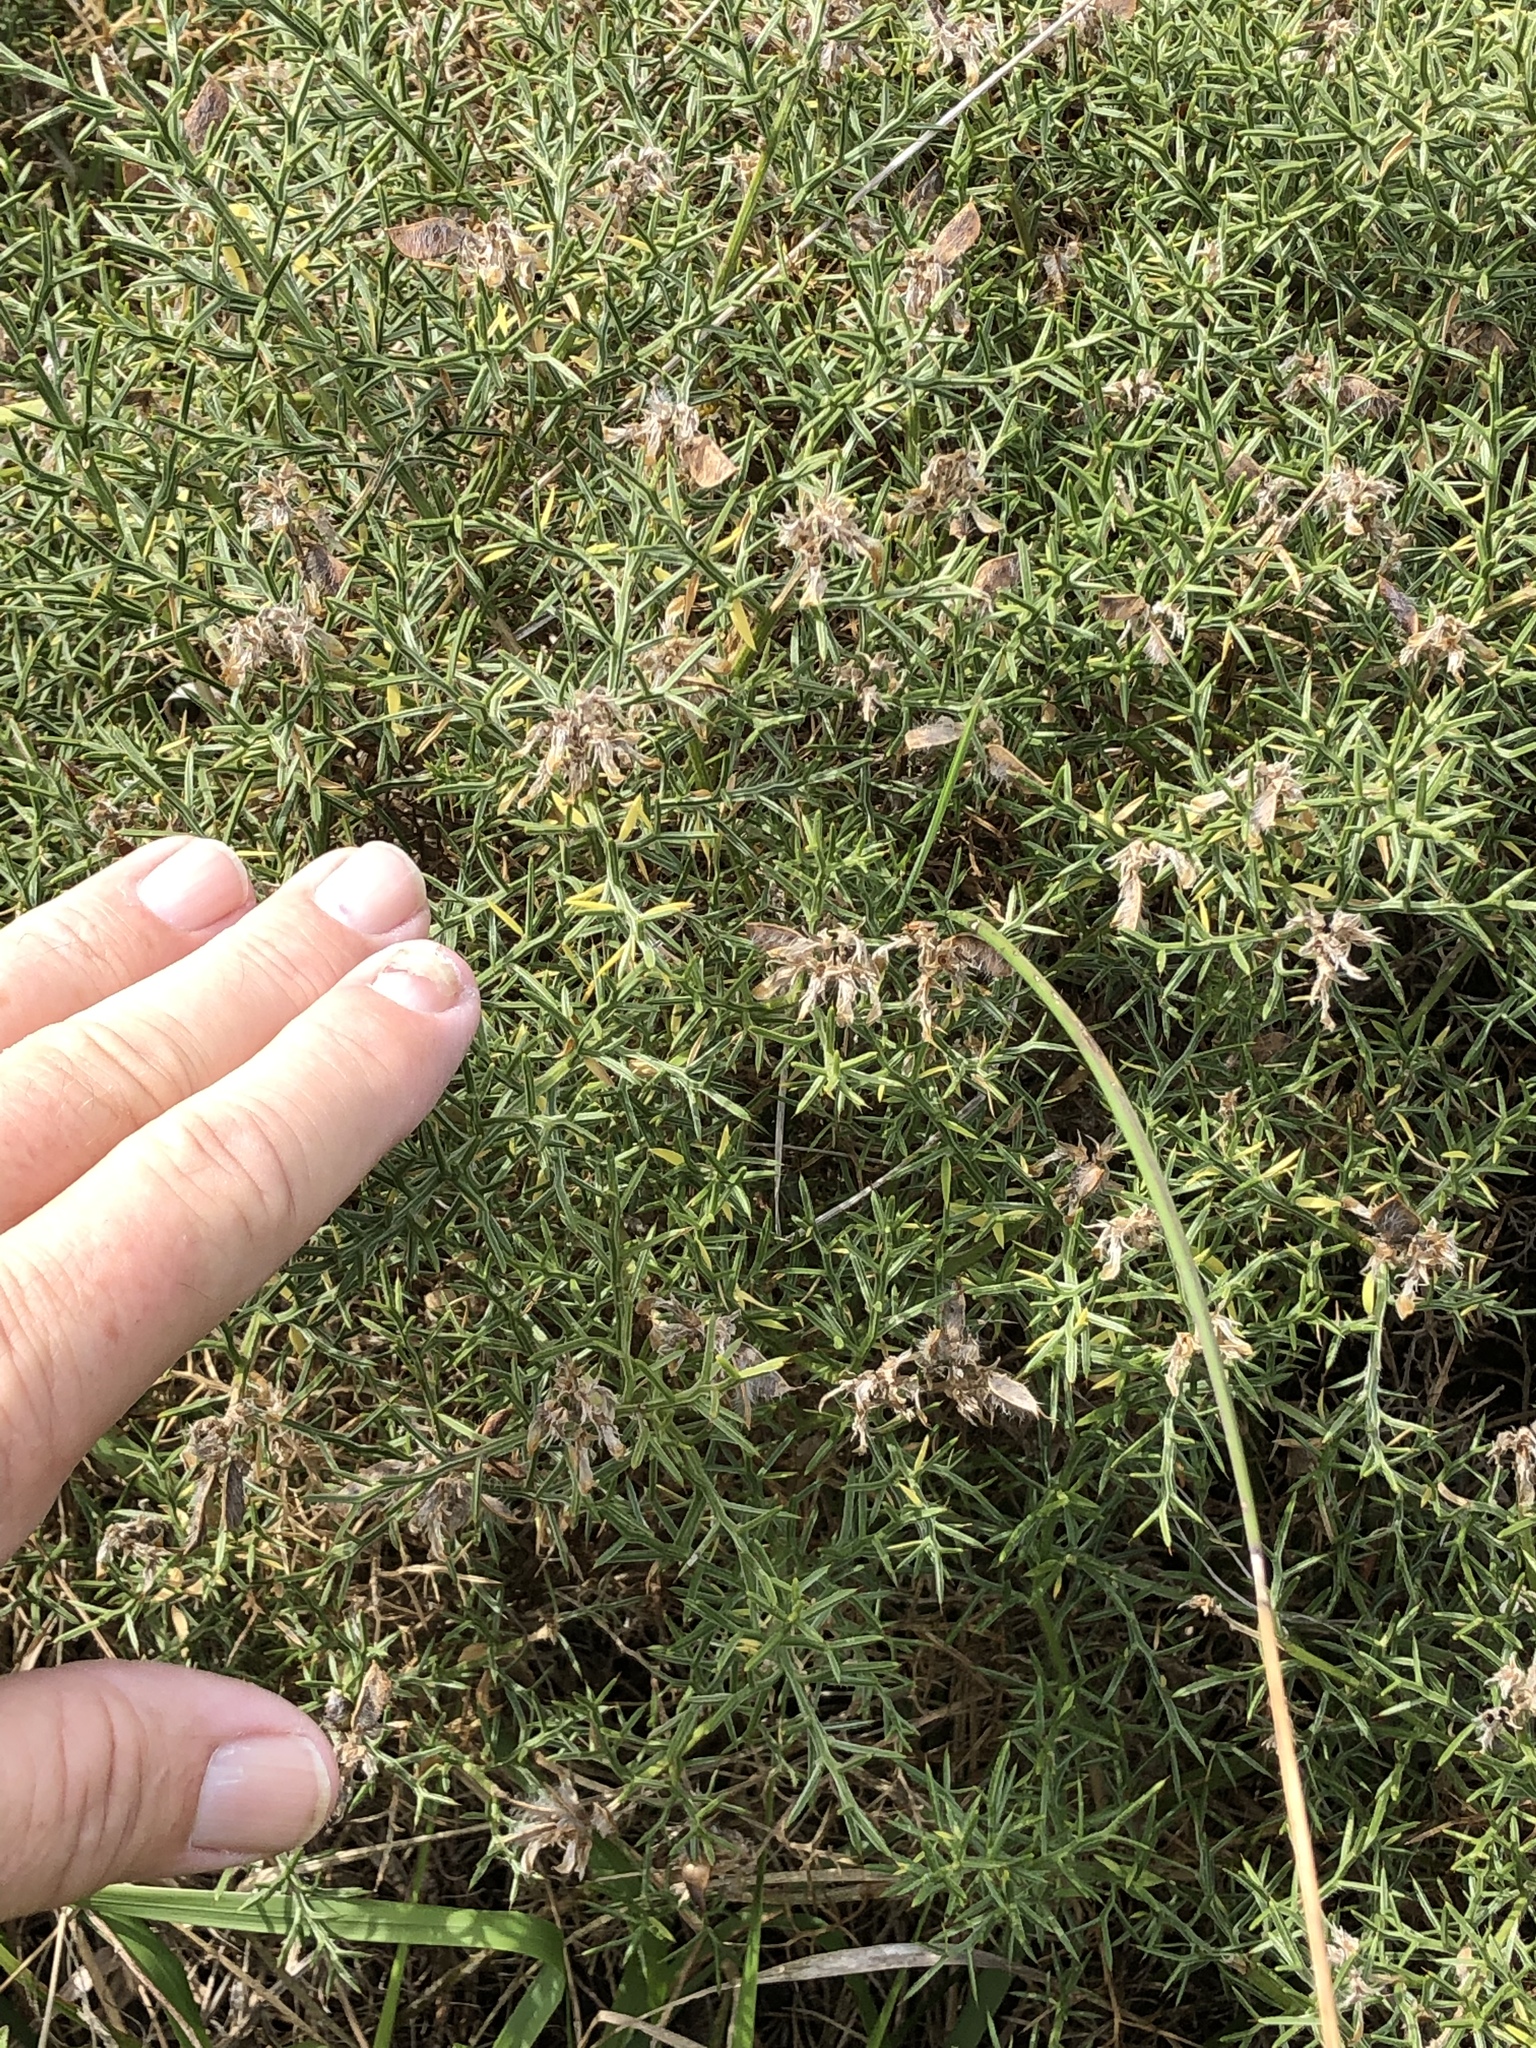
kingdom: Plantae
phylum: Tracheophyta
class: Magnoliopsida
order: Fabales
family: Fabaceae
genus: Genista
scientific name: Genista hispanica
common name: Spanish gorse
